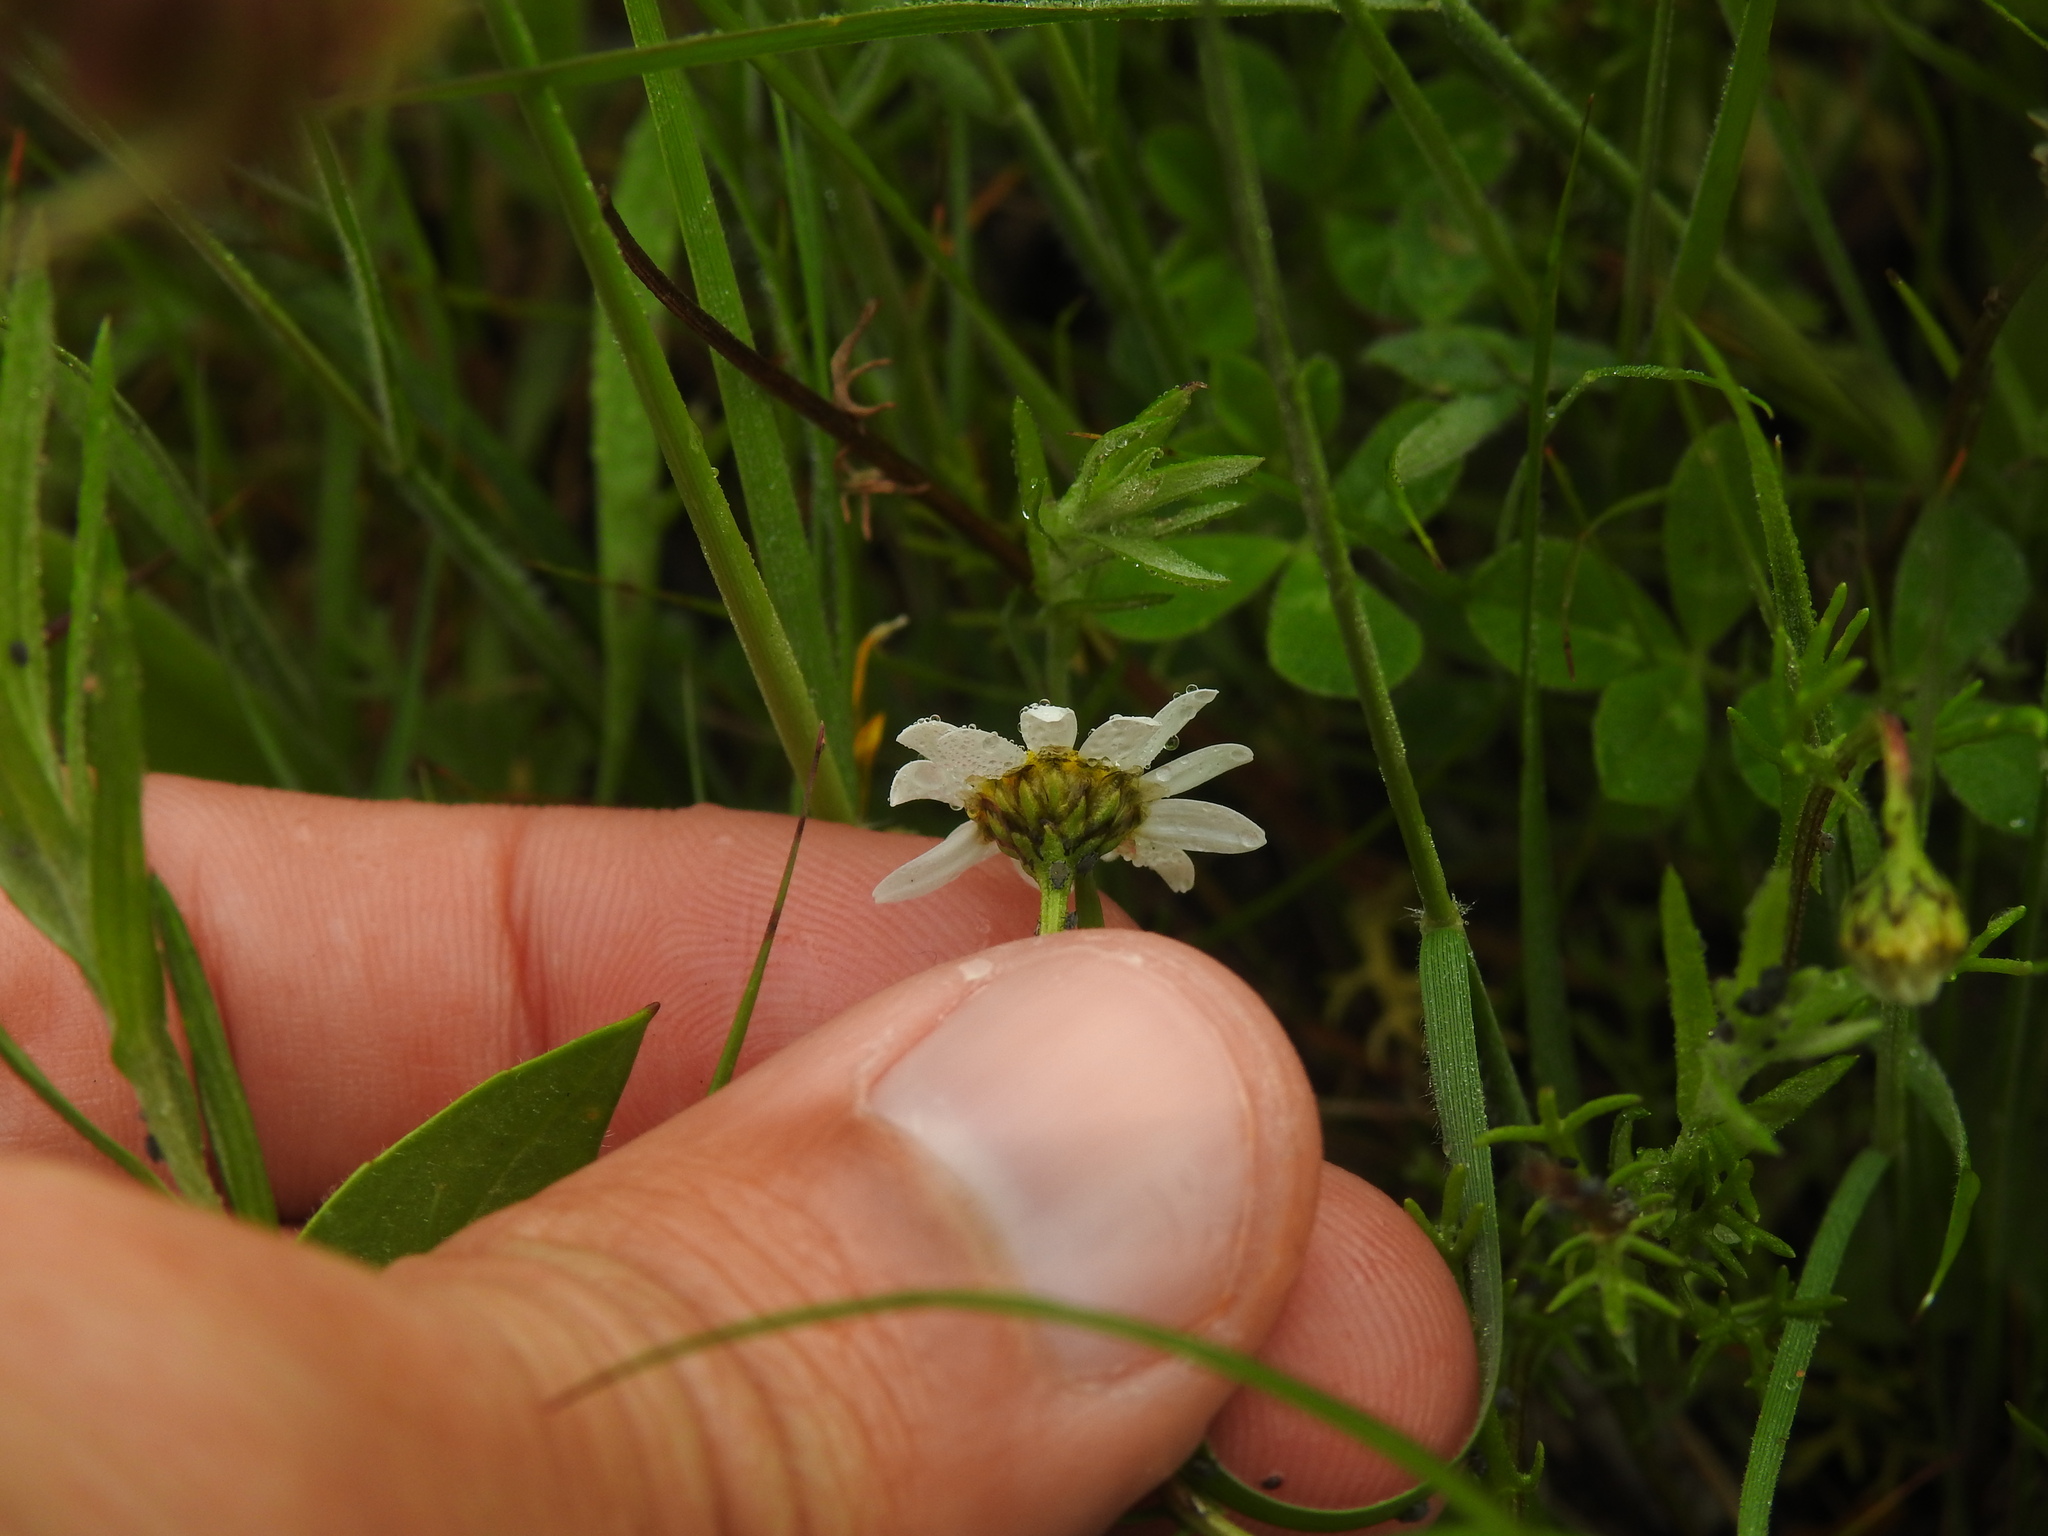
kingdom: Plantae
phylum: Tracheophyta
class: Magnoliopsida
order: Asterales
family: Asteraceae
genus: Chamaemelum
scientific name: Chamaemelum fuscatum
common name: Chamomile
